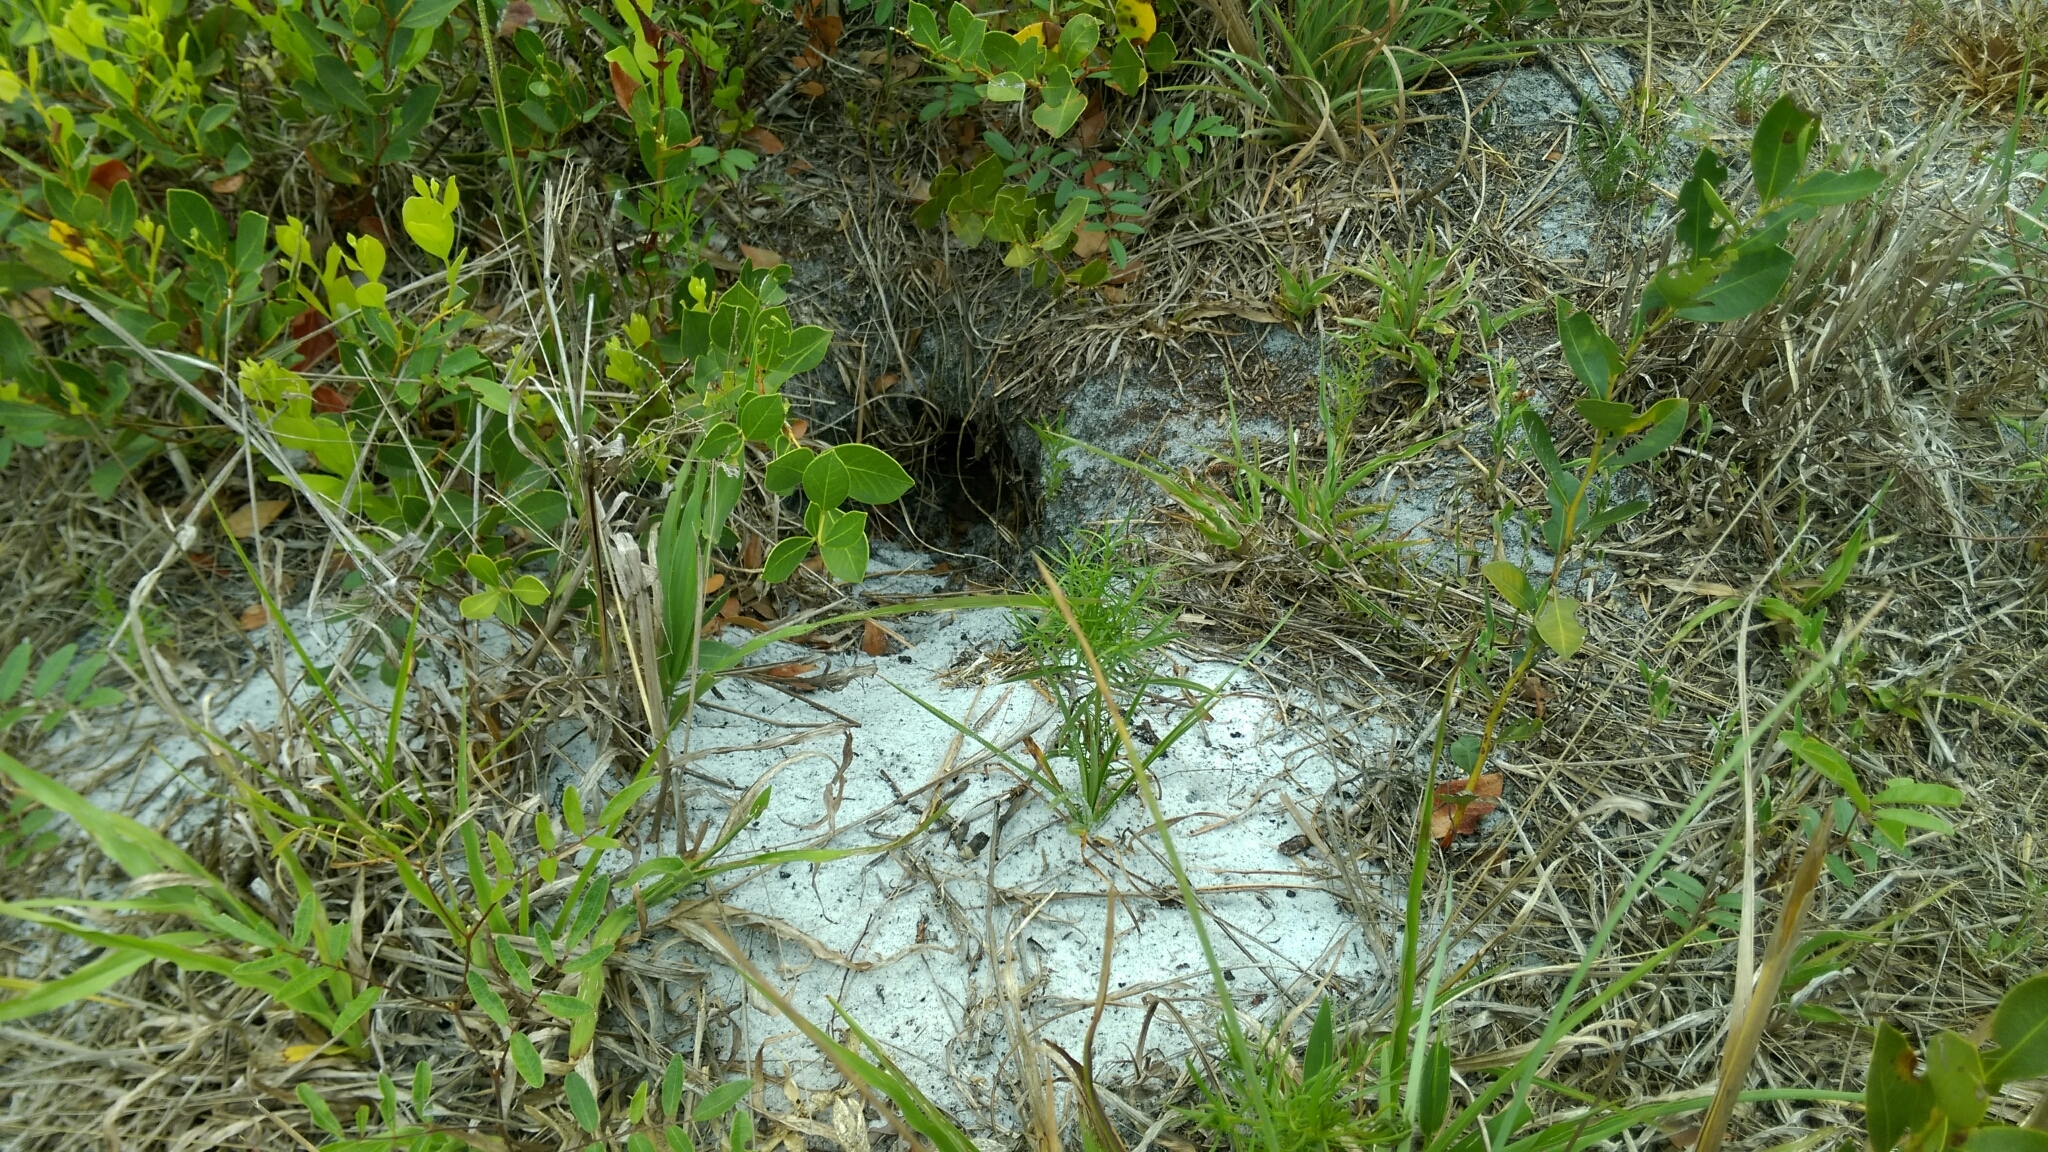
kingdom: Animalia
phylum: Chordata
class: Testudines
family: Testudinidae
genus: Gopherus
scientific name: Gopherus polyphemus
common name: Florida gopher tortoise
